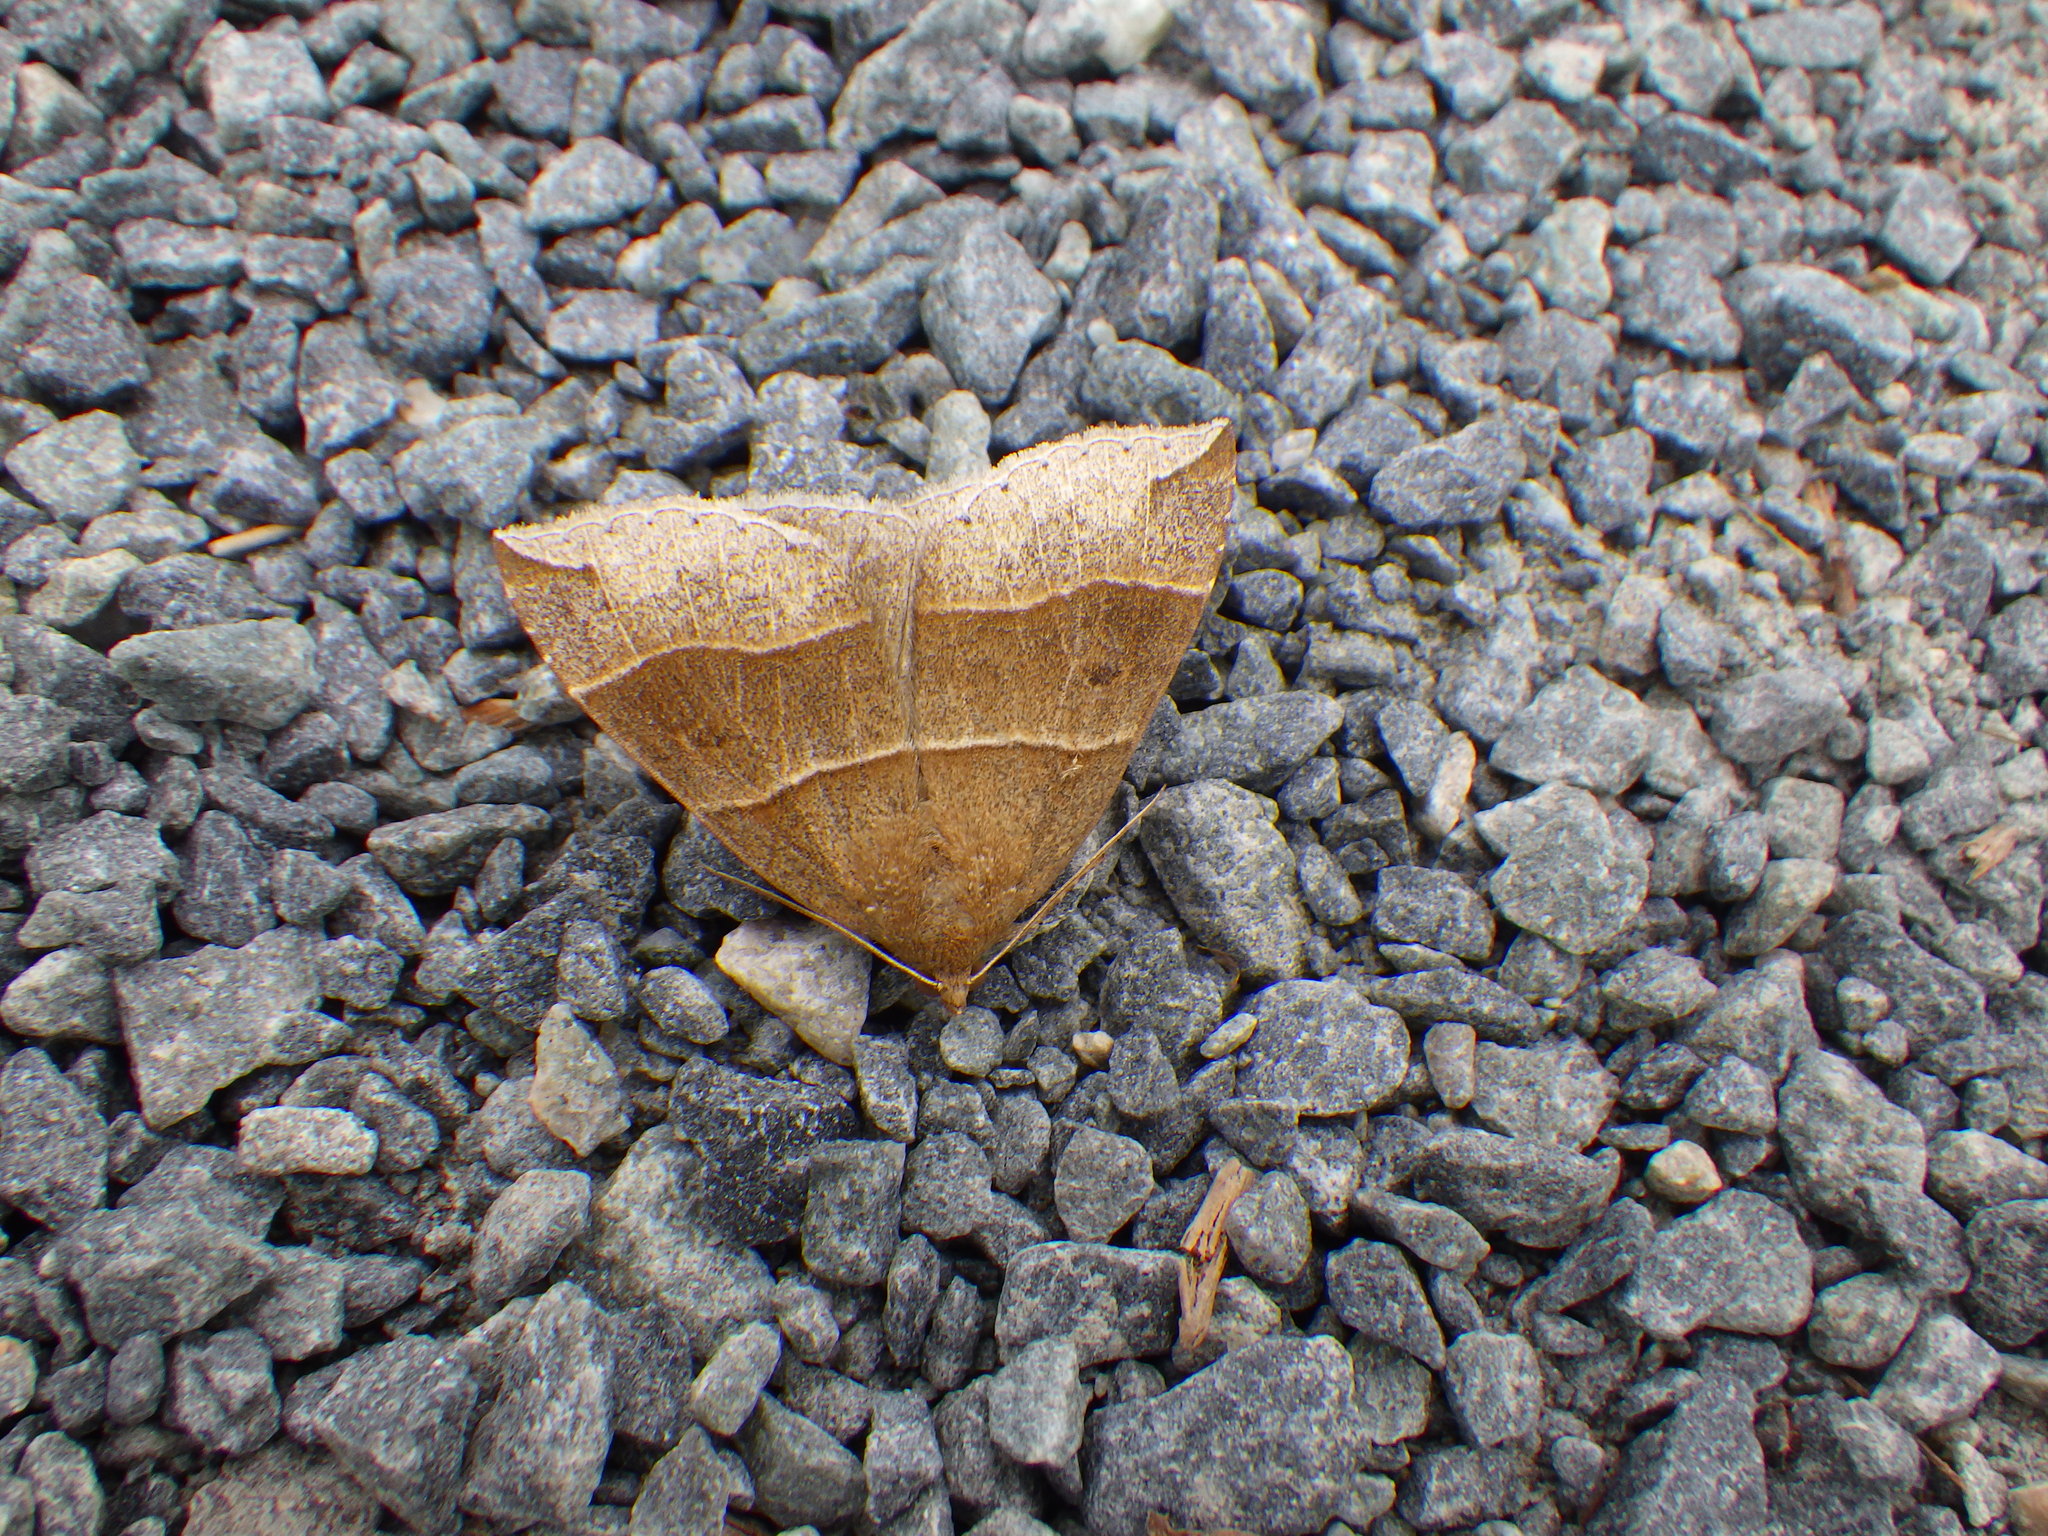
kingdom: Animalia
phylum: Arthropoda
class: Insecta
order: Lepidoptera
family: Erebidae
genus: Parallelia
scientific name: Parallelia bistriaris
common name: Maple looper moth
